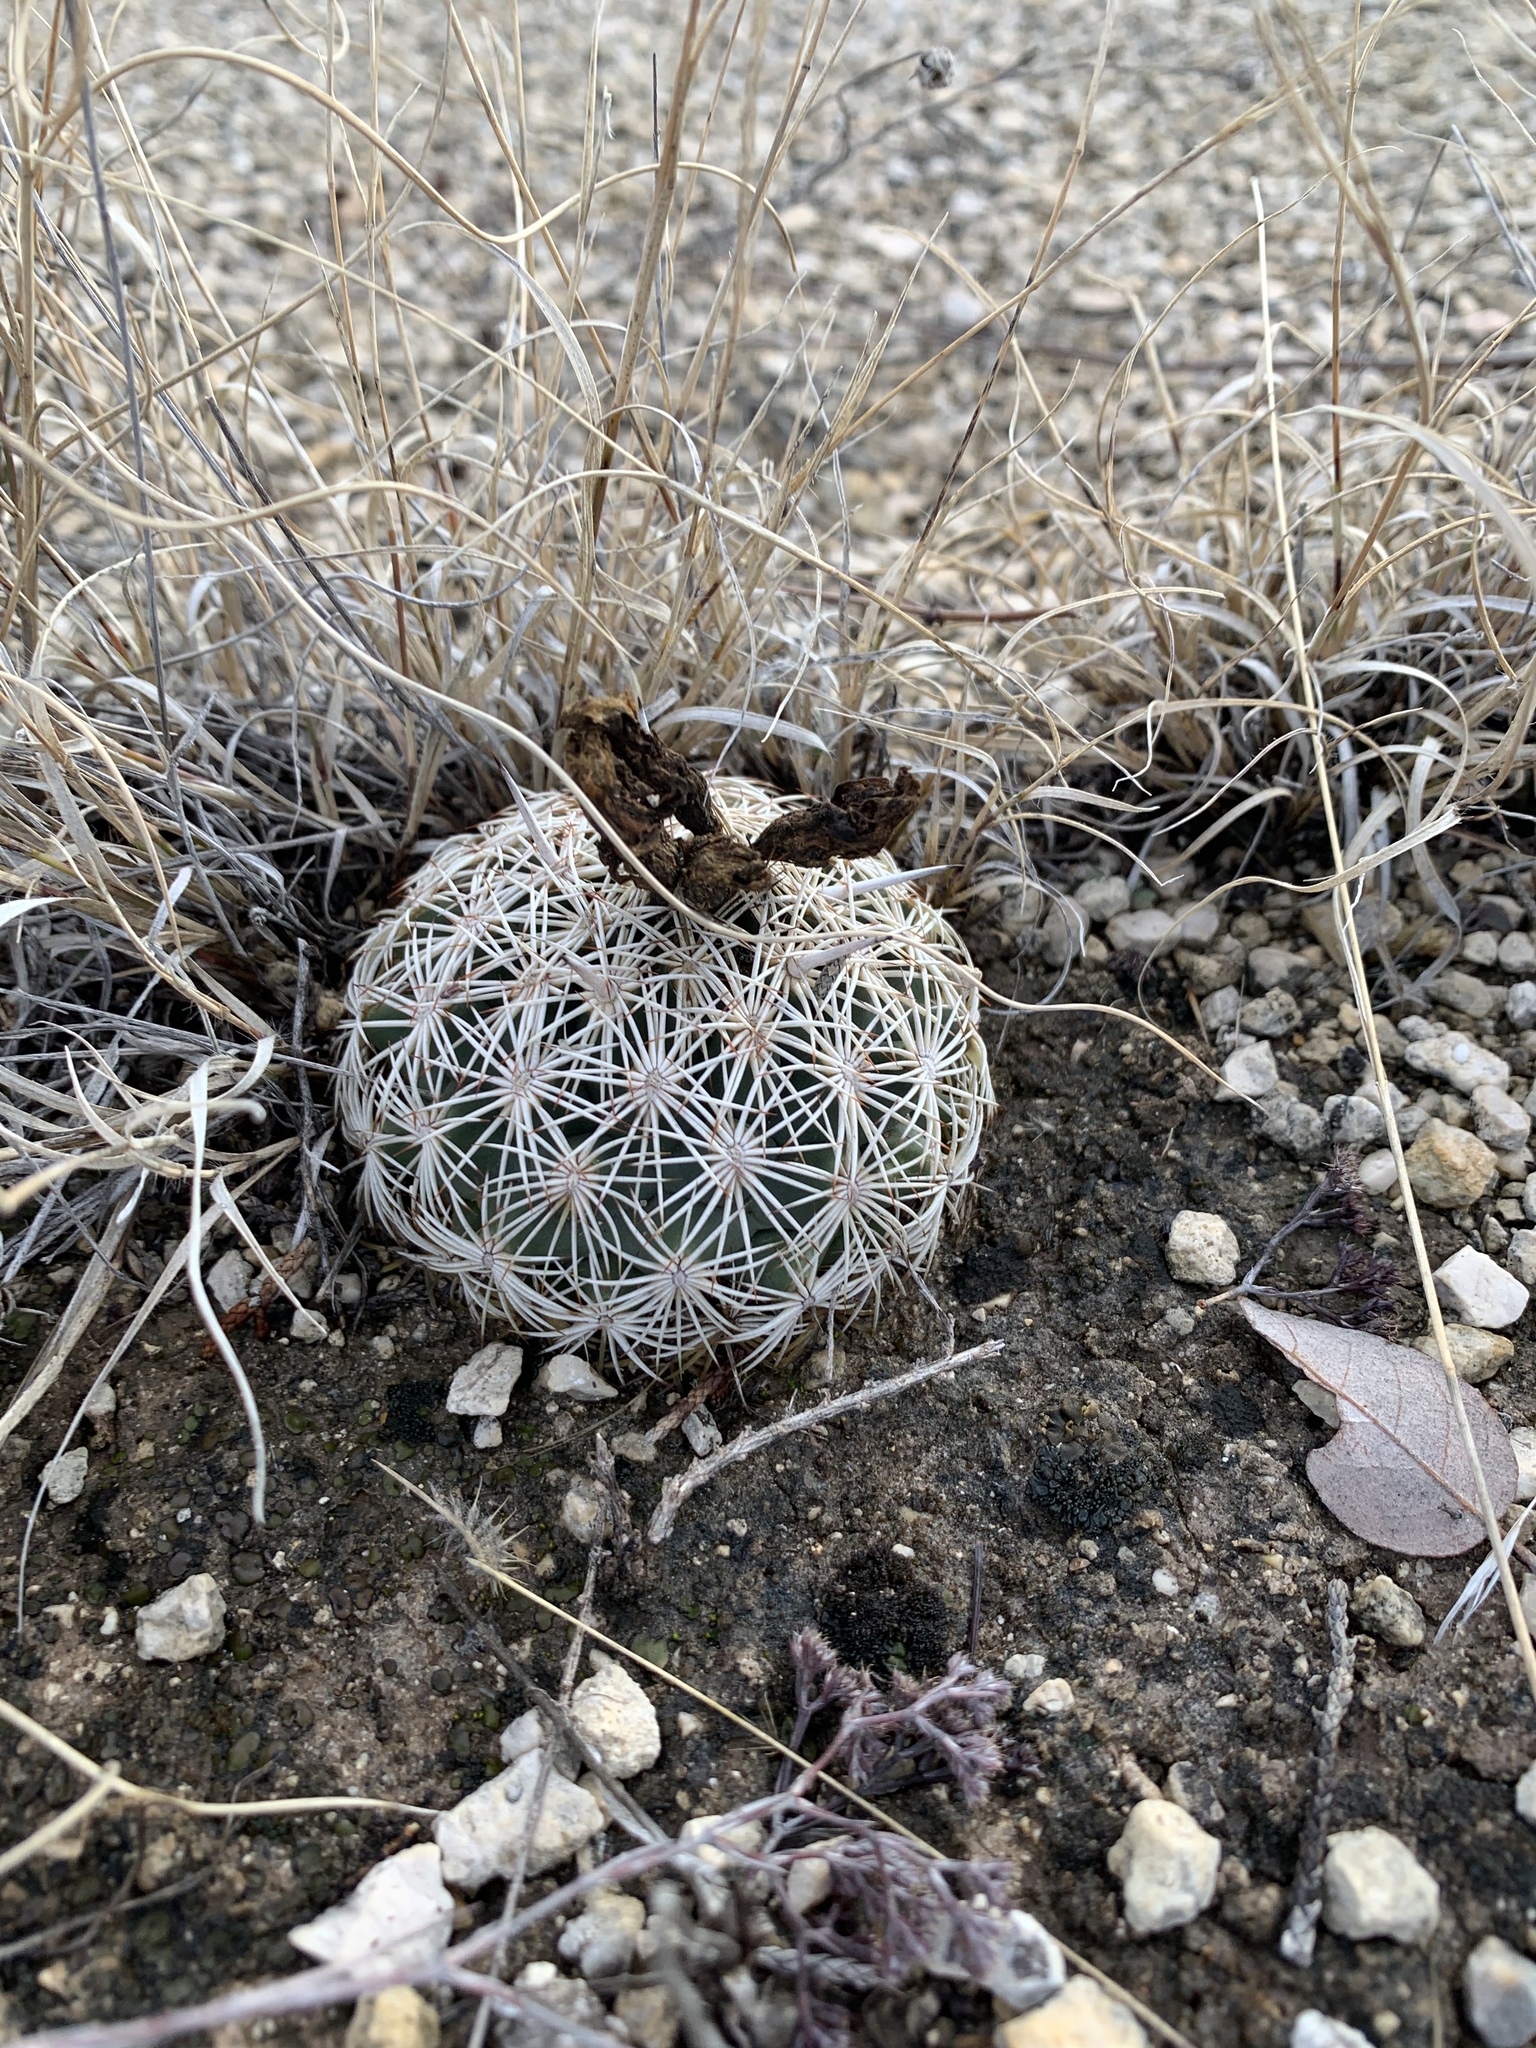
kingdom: Plantae
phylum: Tracheophyta
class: Magnoliopsida
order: Caryophyllales
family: Cactaceae
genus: Coryphantha
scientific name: Coryphantha echinus
